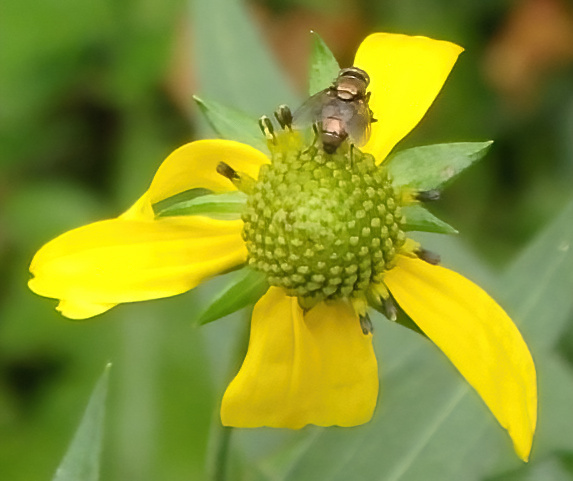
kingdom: Animalia
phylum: Arthropoda
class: Insecta
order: Diptera
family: Calliphoridae
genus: Lucilia
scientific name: Lucilia cuprina
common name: Sheep blow fly
